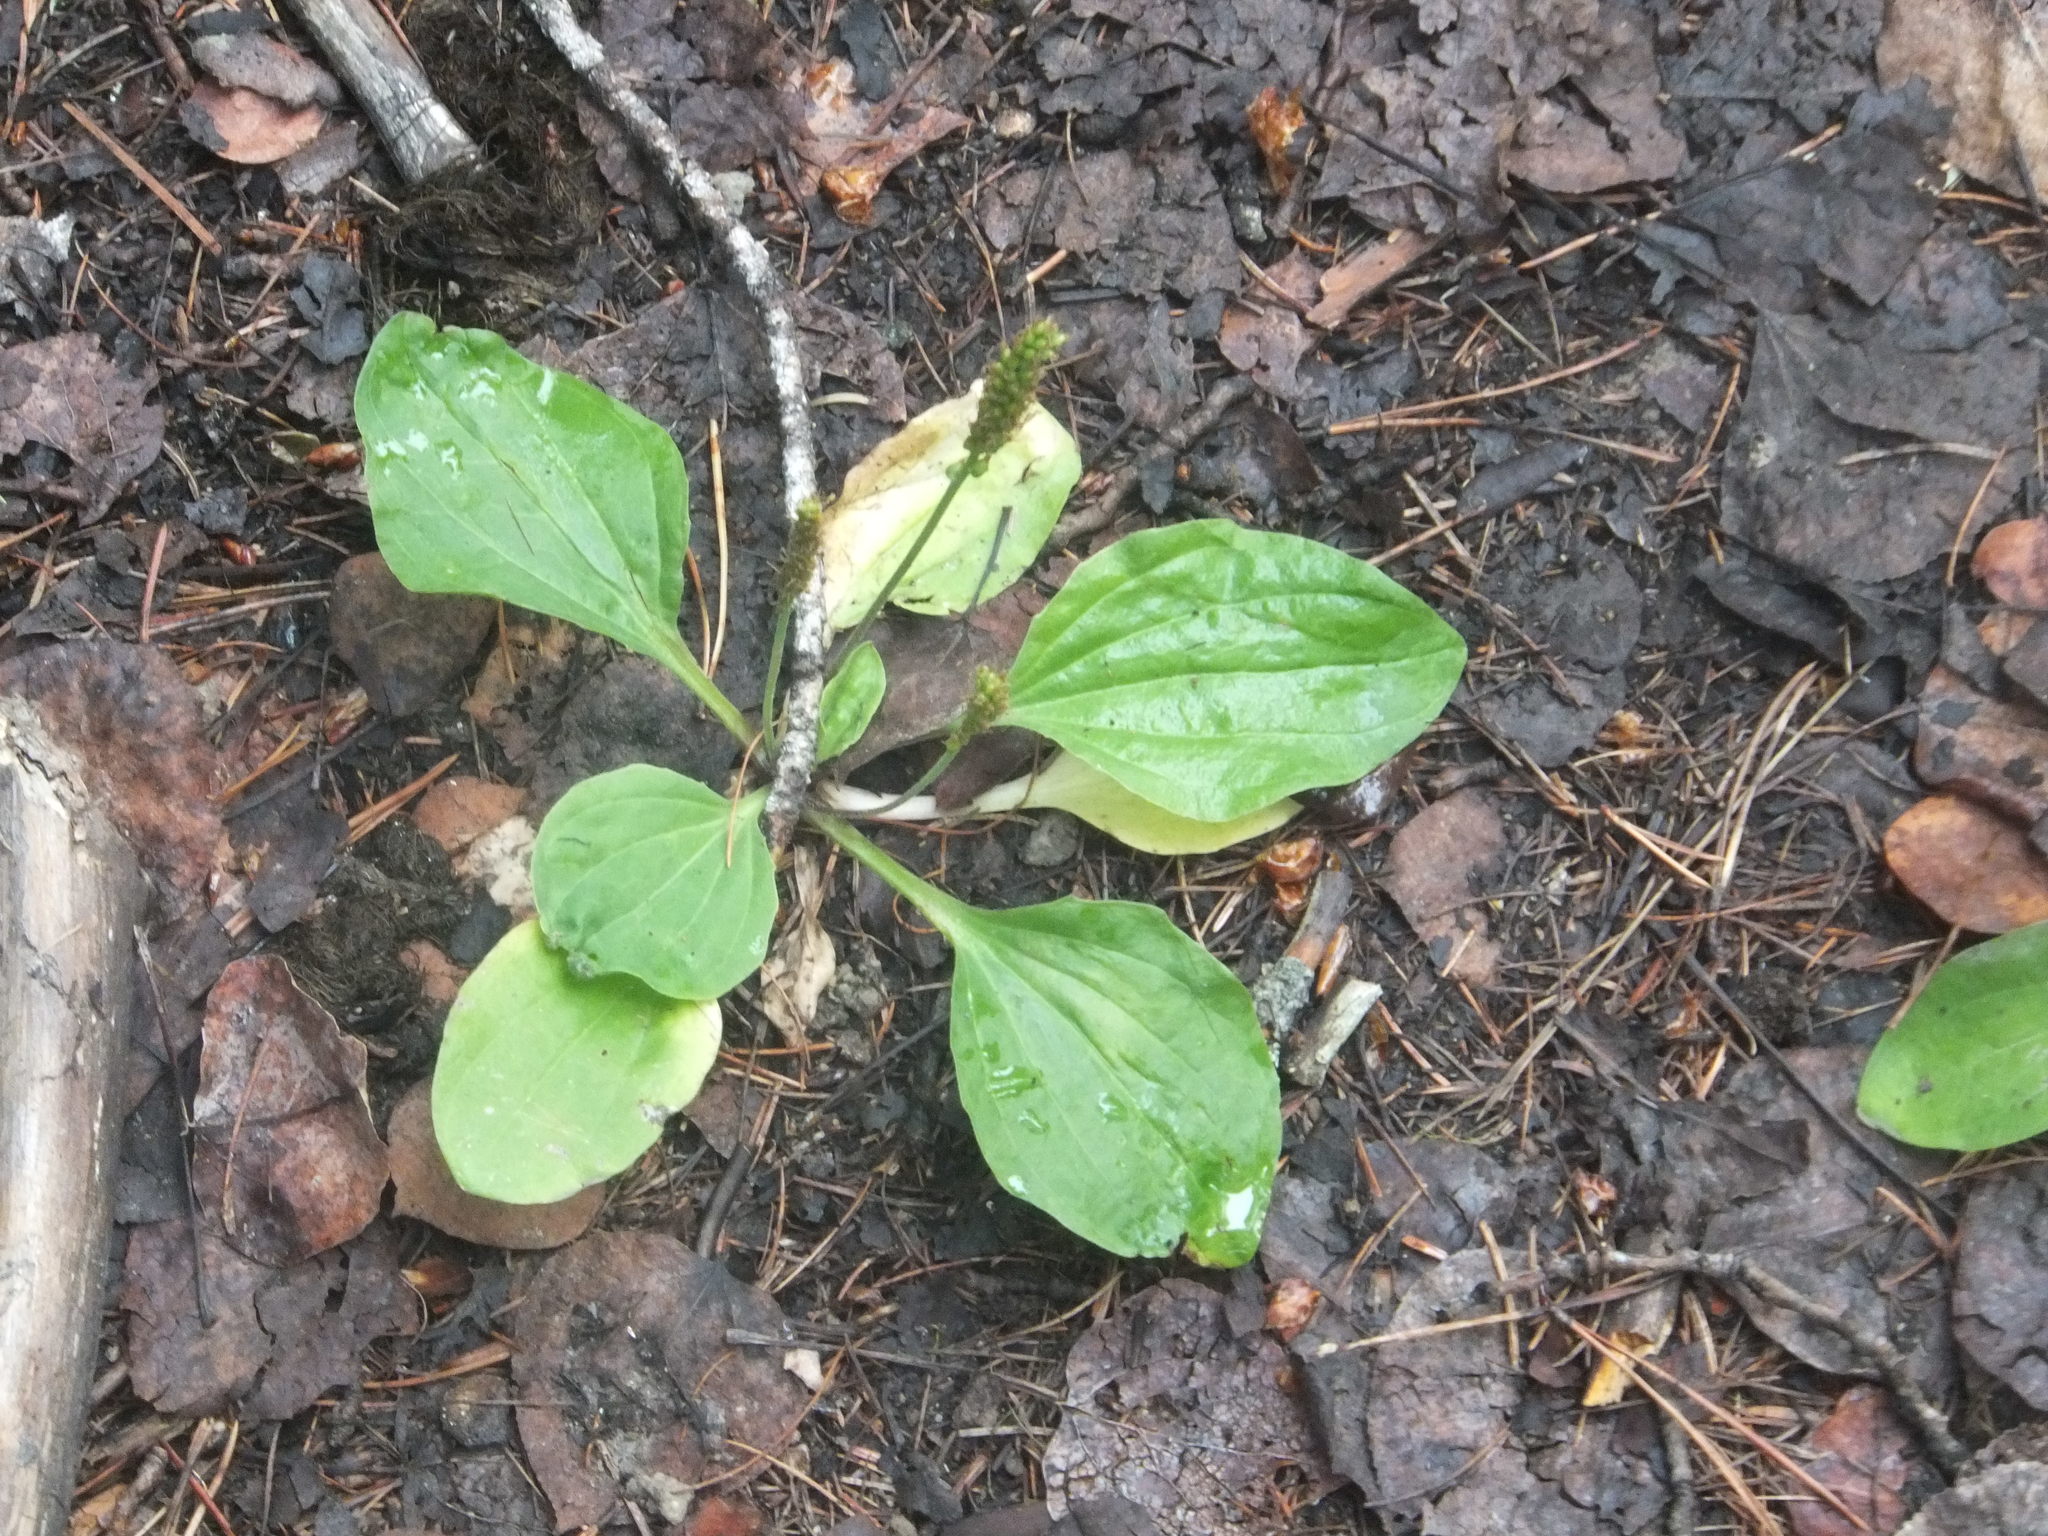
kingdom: Plantae
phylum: Tracheophyta
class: Magnoliopsida
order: Lamiales
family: Plantaginaceae
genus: Plantago
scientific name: Plantago major
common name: Common plantain
